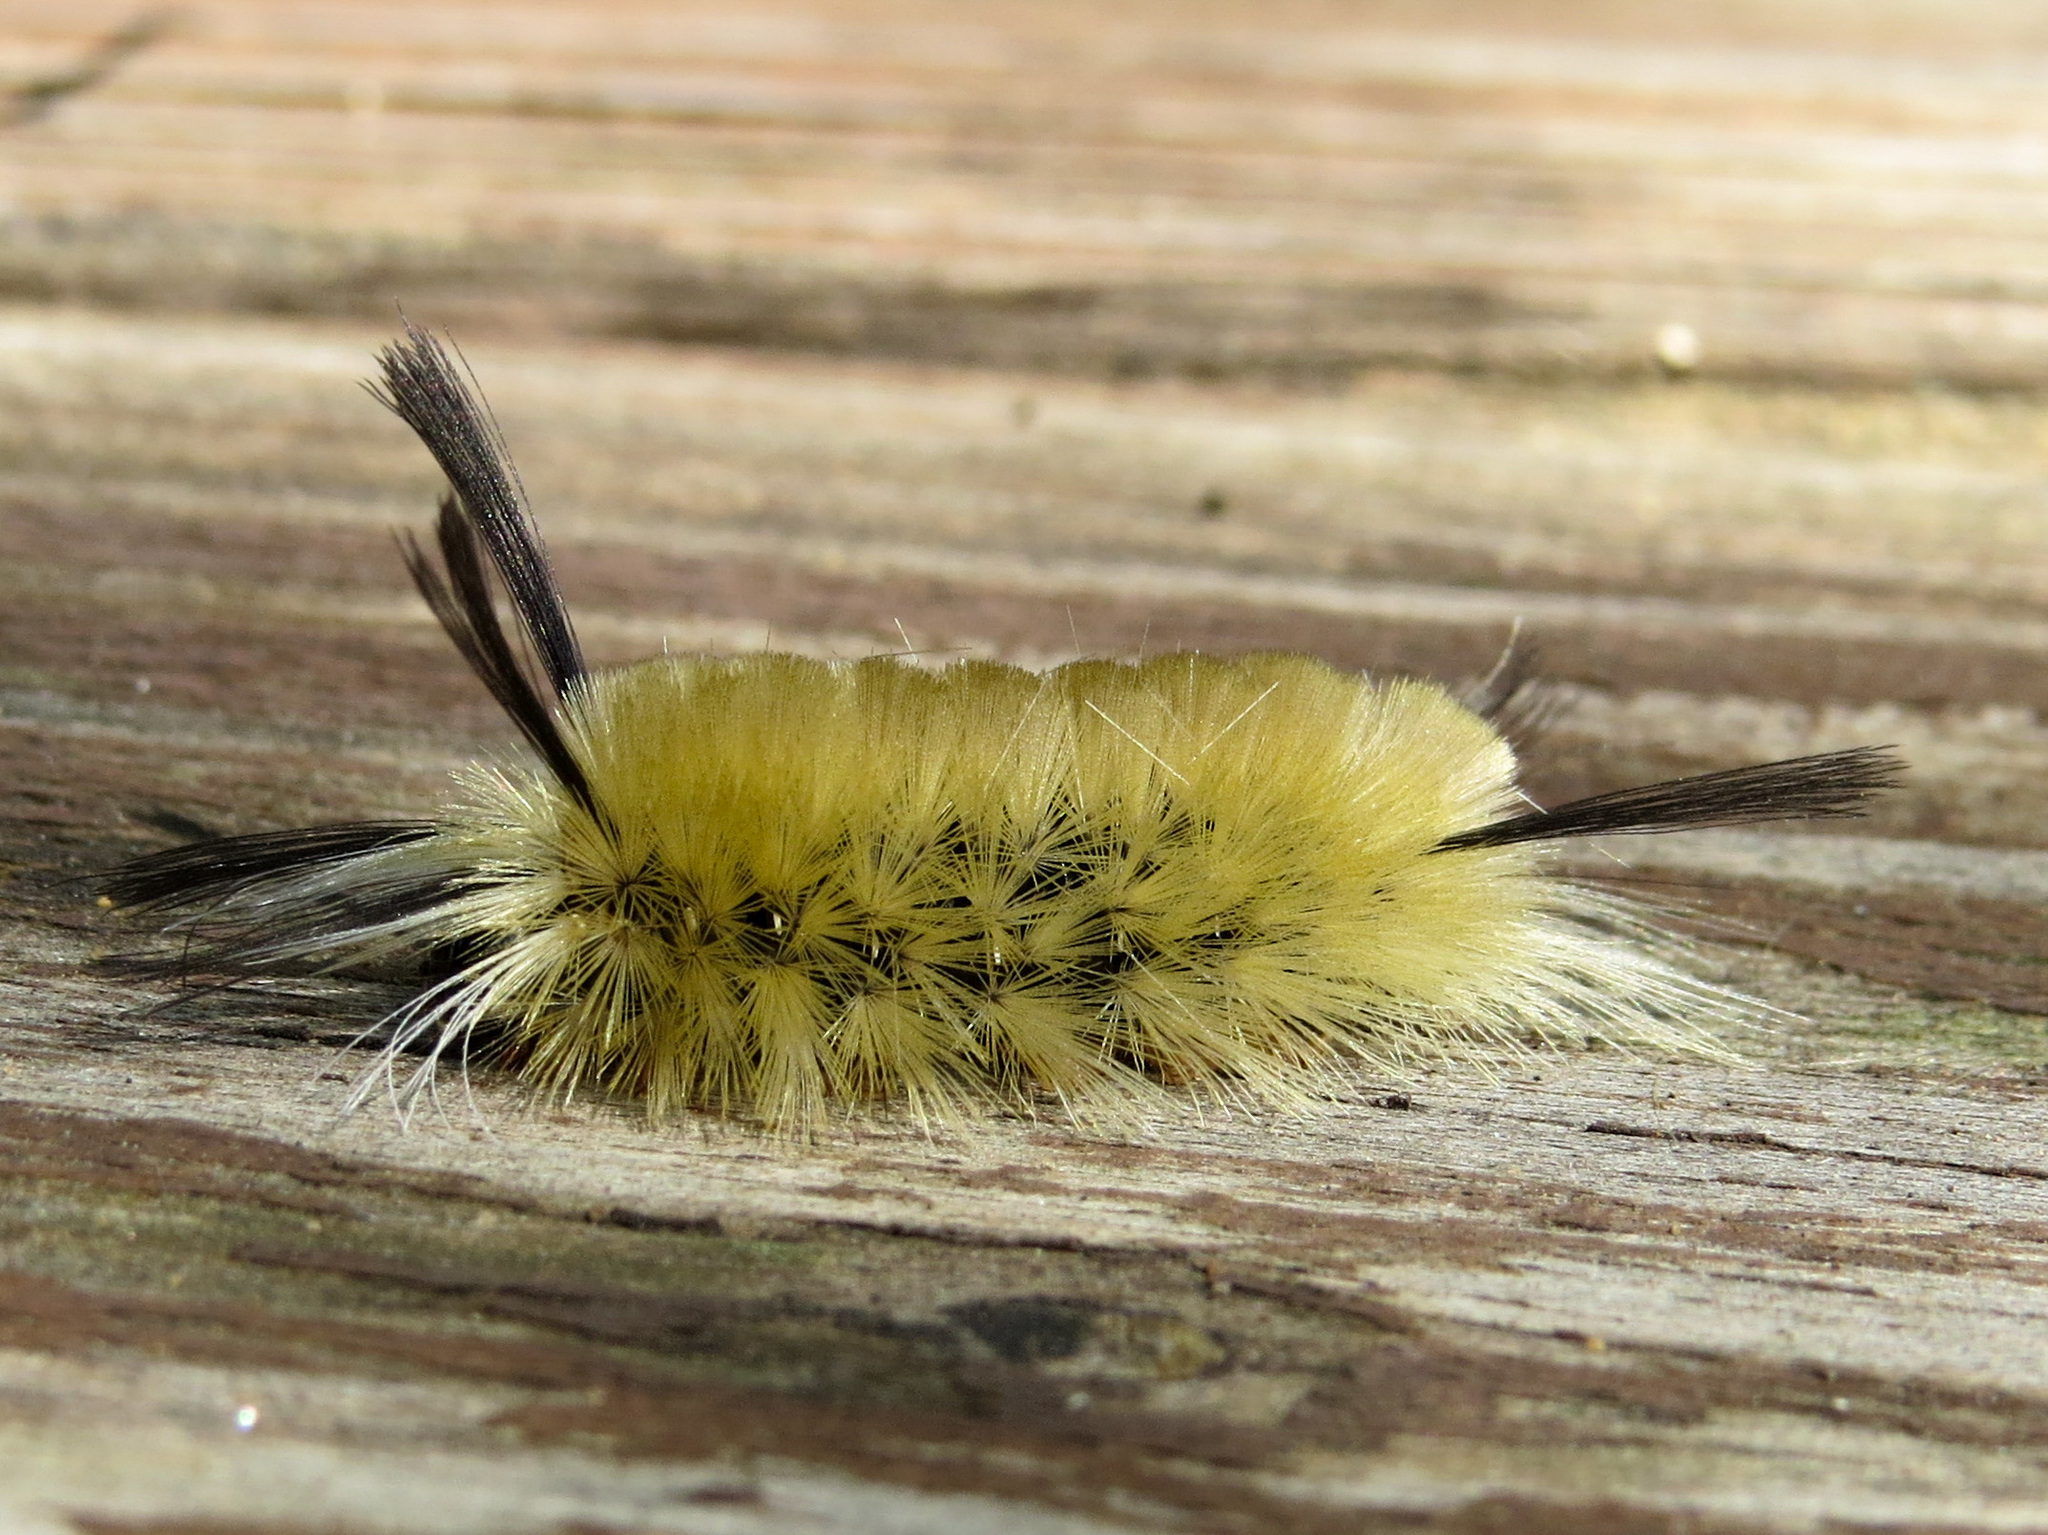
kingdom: Animalia
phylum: Arthropoda
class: Insecta
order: Lepidoptera
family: Erebidae
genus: Halysidota
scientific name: Halysidota tessellaris
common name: Banded tussock moth
